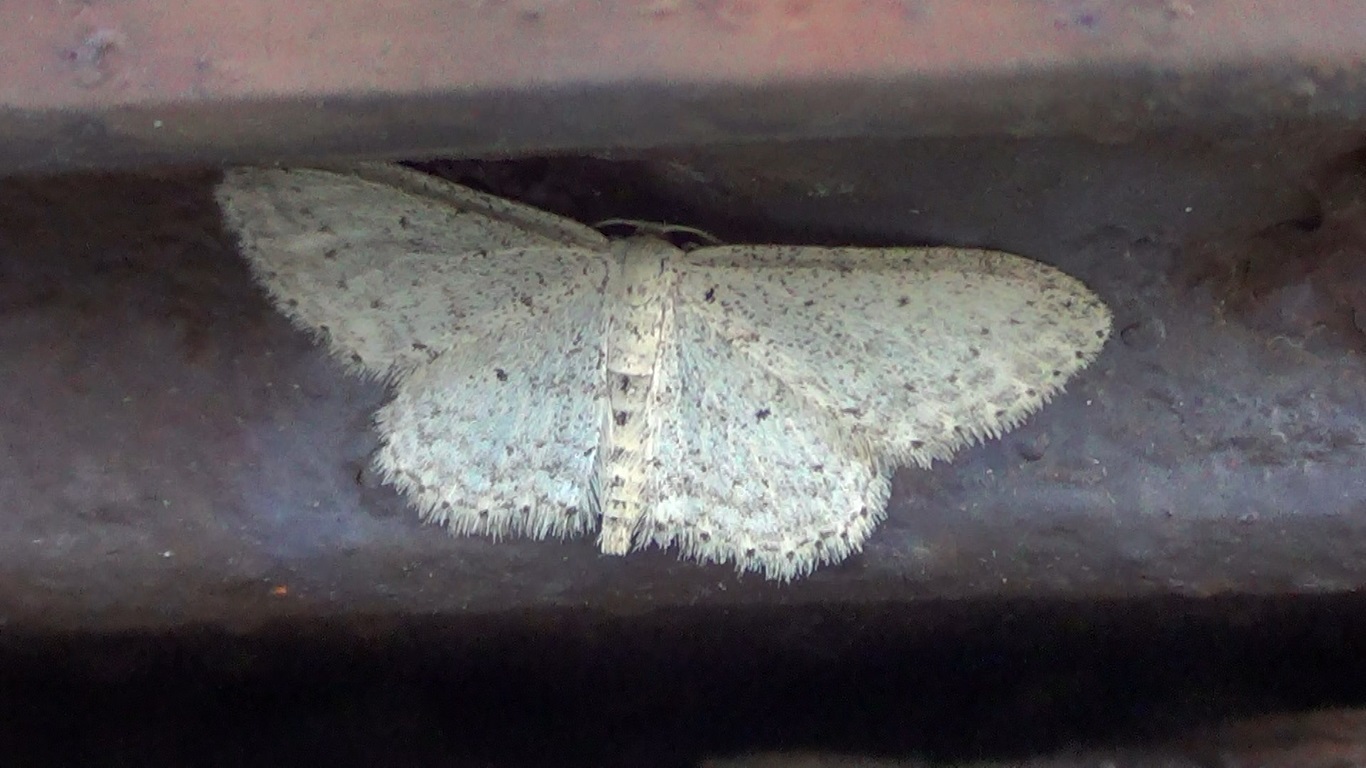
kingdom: Animalia
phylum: Arthropoda
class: Insecta
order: Lepidoptera
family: Geometridae
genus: Idaea
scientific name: Idaea seriata
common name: Small dusty wave
